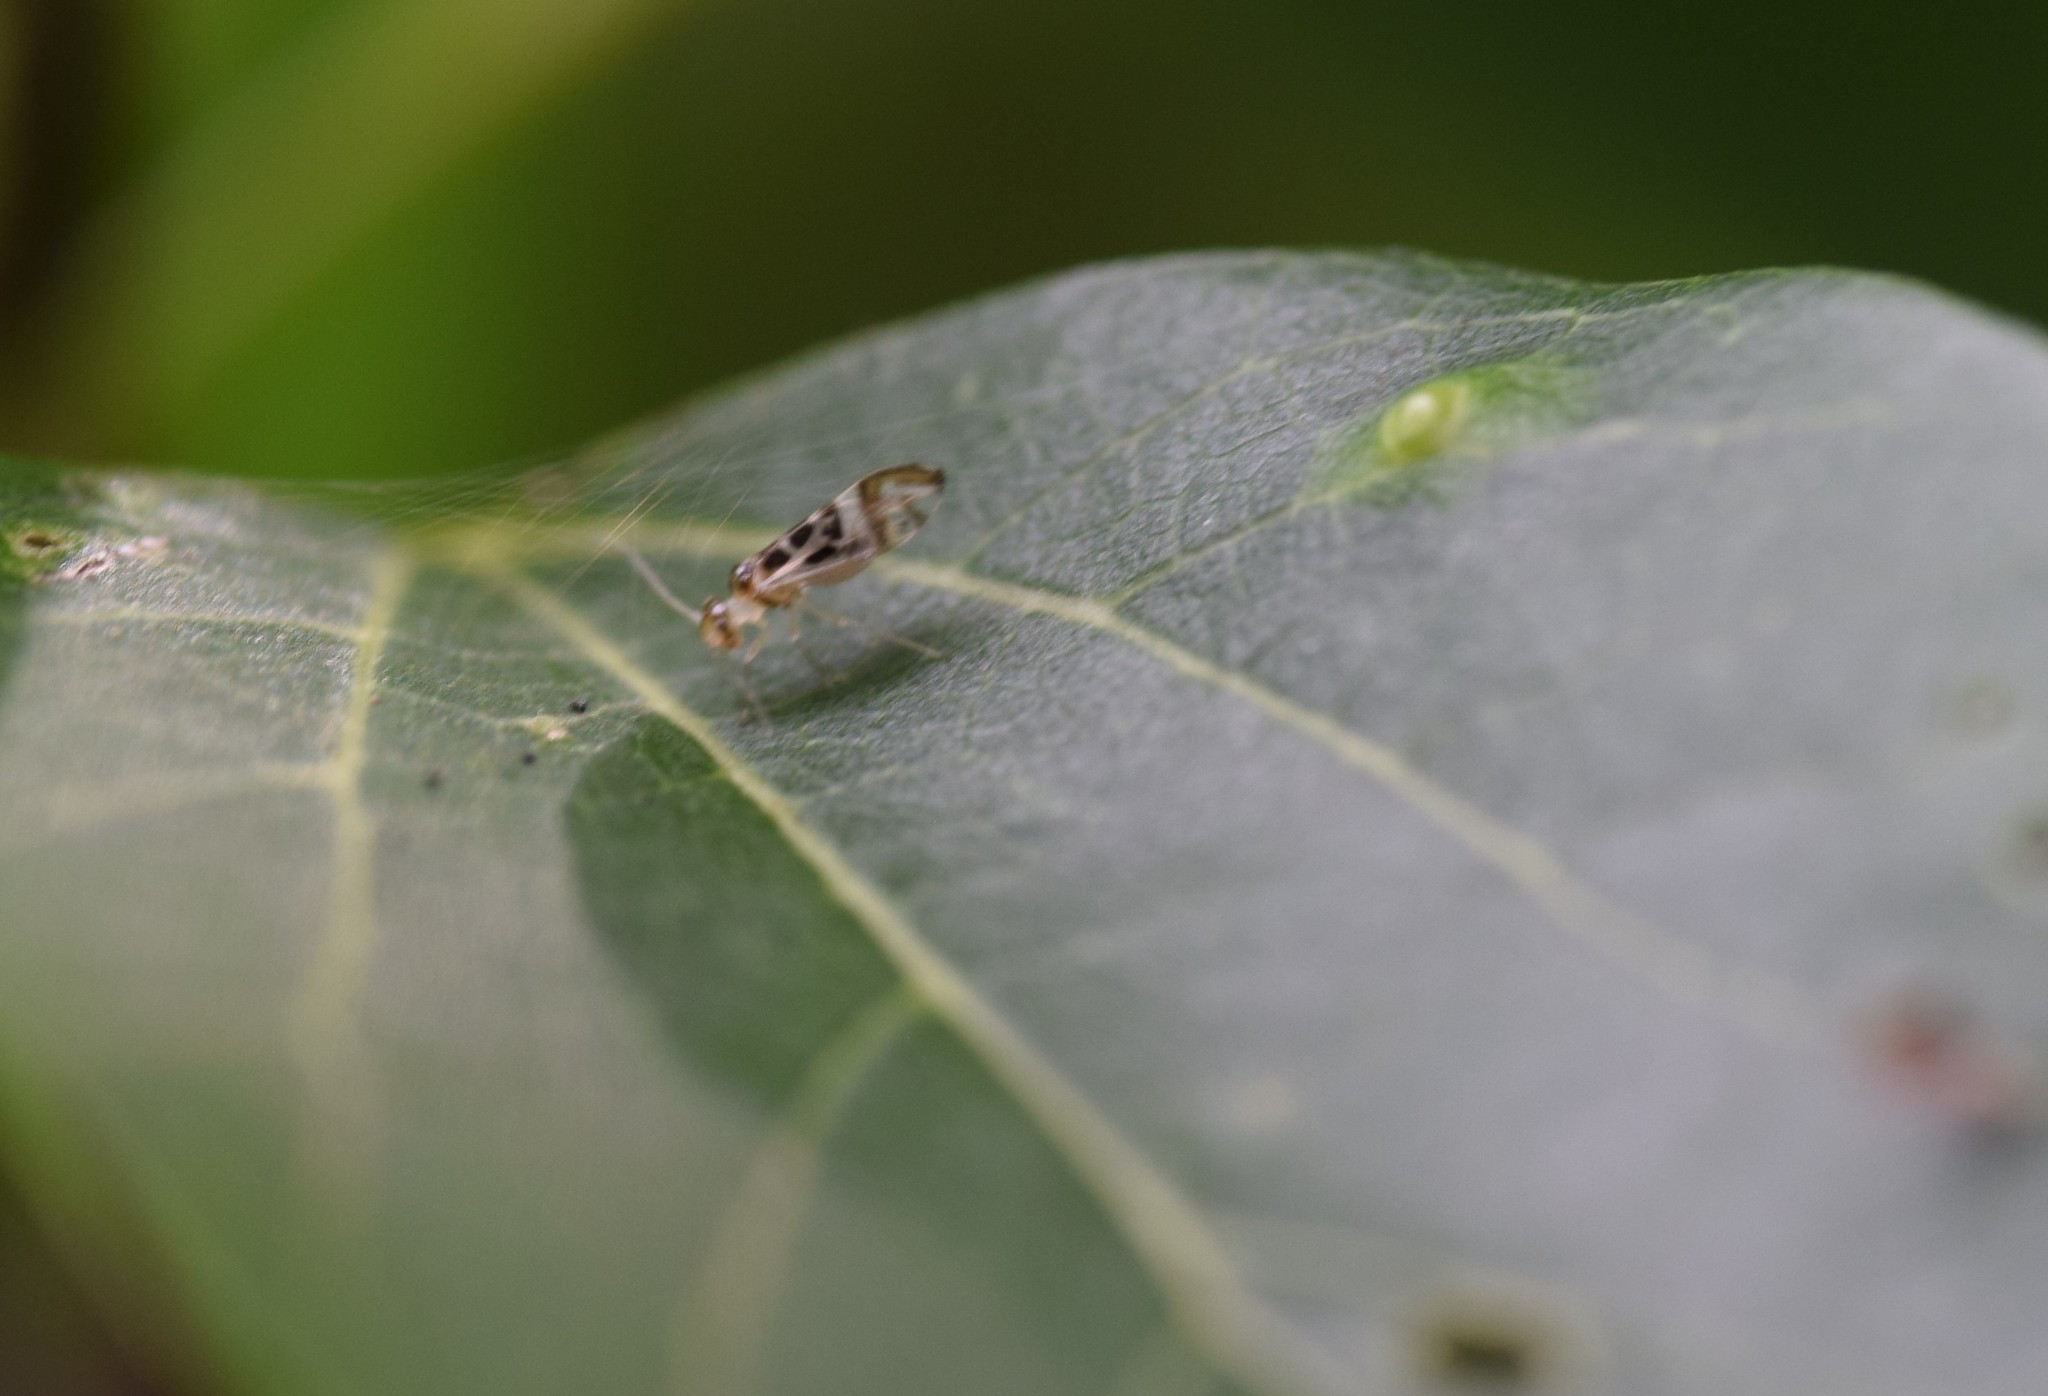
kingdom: Animalia
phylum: Arthropoda
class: Insecta
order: Psocodea
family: Stenopsocidae
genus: Graphopsocus
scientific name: Graphopsocus cruciatus
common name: Lizard bark louse
